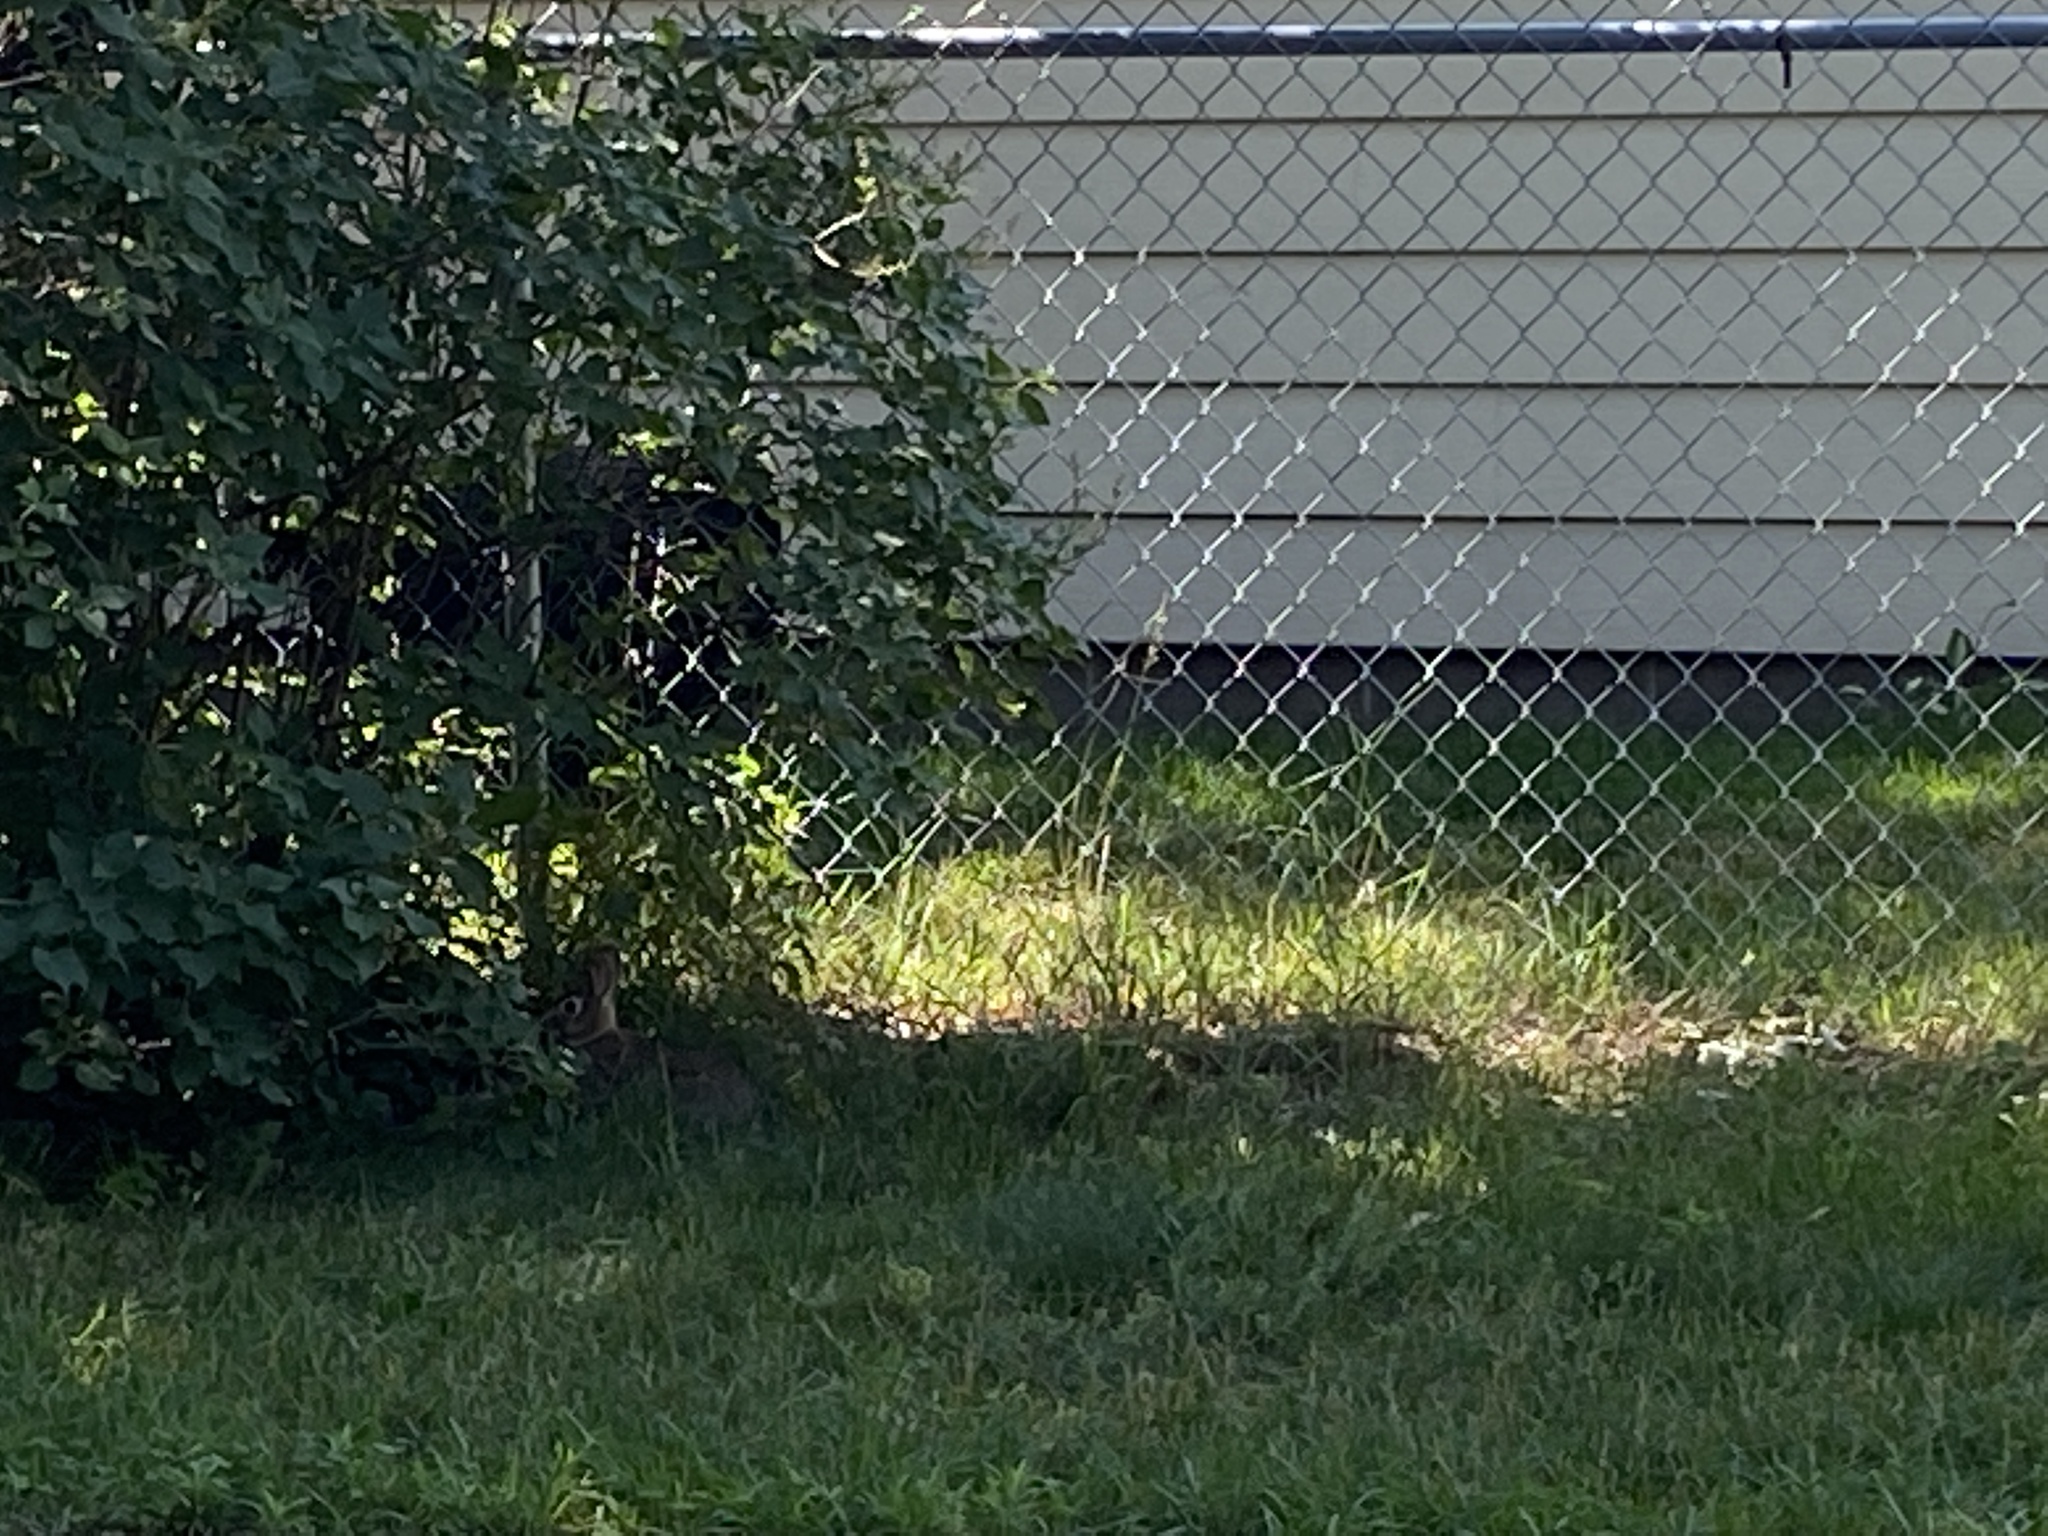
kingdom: Animalia
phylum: Chordata
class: Mammalia
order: Lagomorpha
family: Leporidae
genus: Sylvilagus
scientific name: Sylvilagus floridanus
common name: Eastern cottontail
